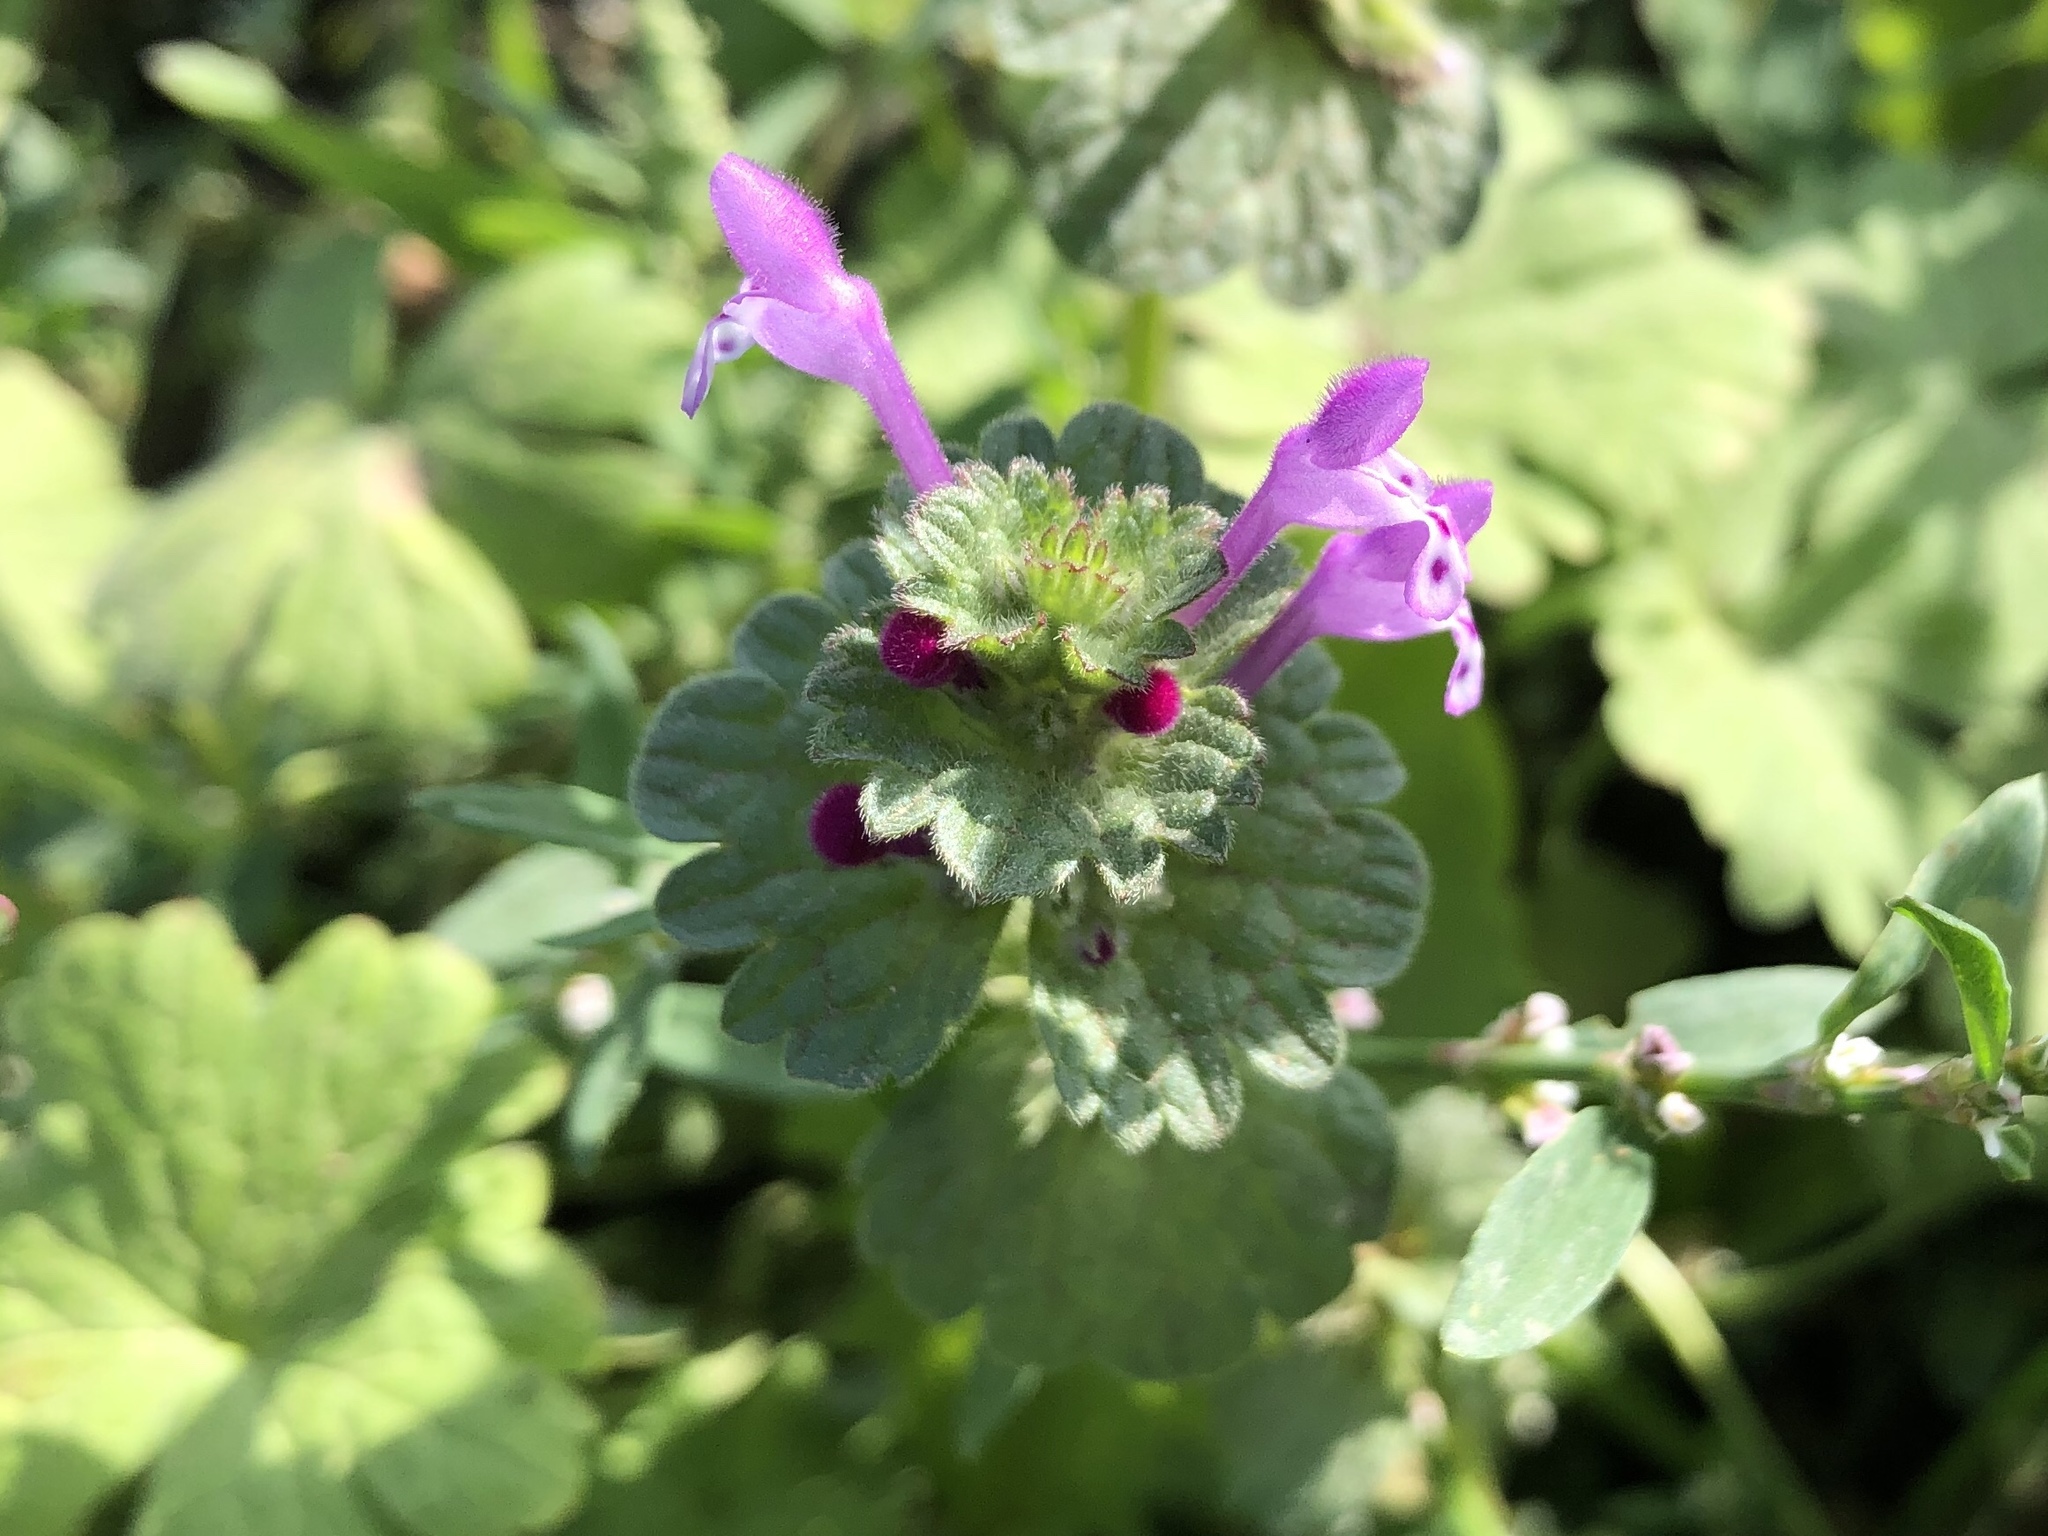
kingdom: Plantae
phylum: Tracheophyta
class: Magnoliopsida
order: Lamiales
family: Lamiaceae
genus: Lamium
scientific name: Lamium amplexicaule
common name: Henbit dead-nettle
